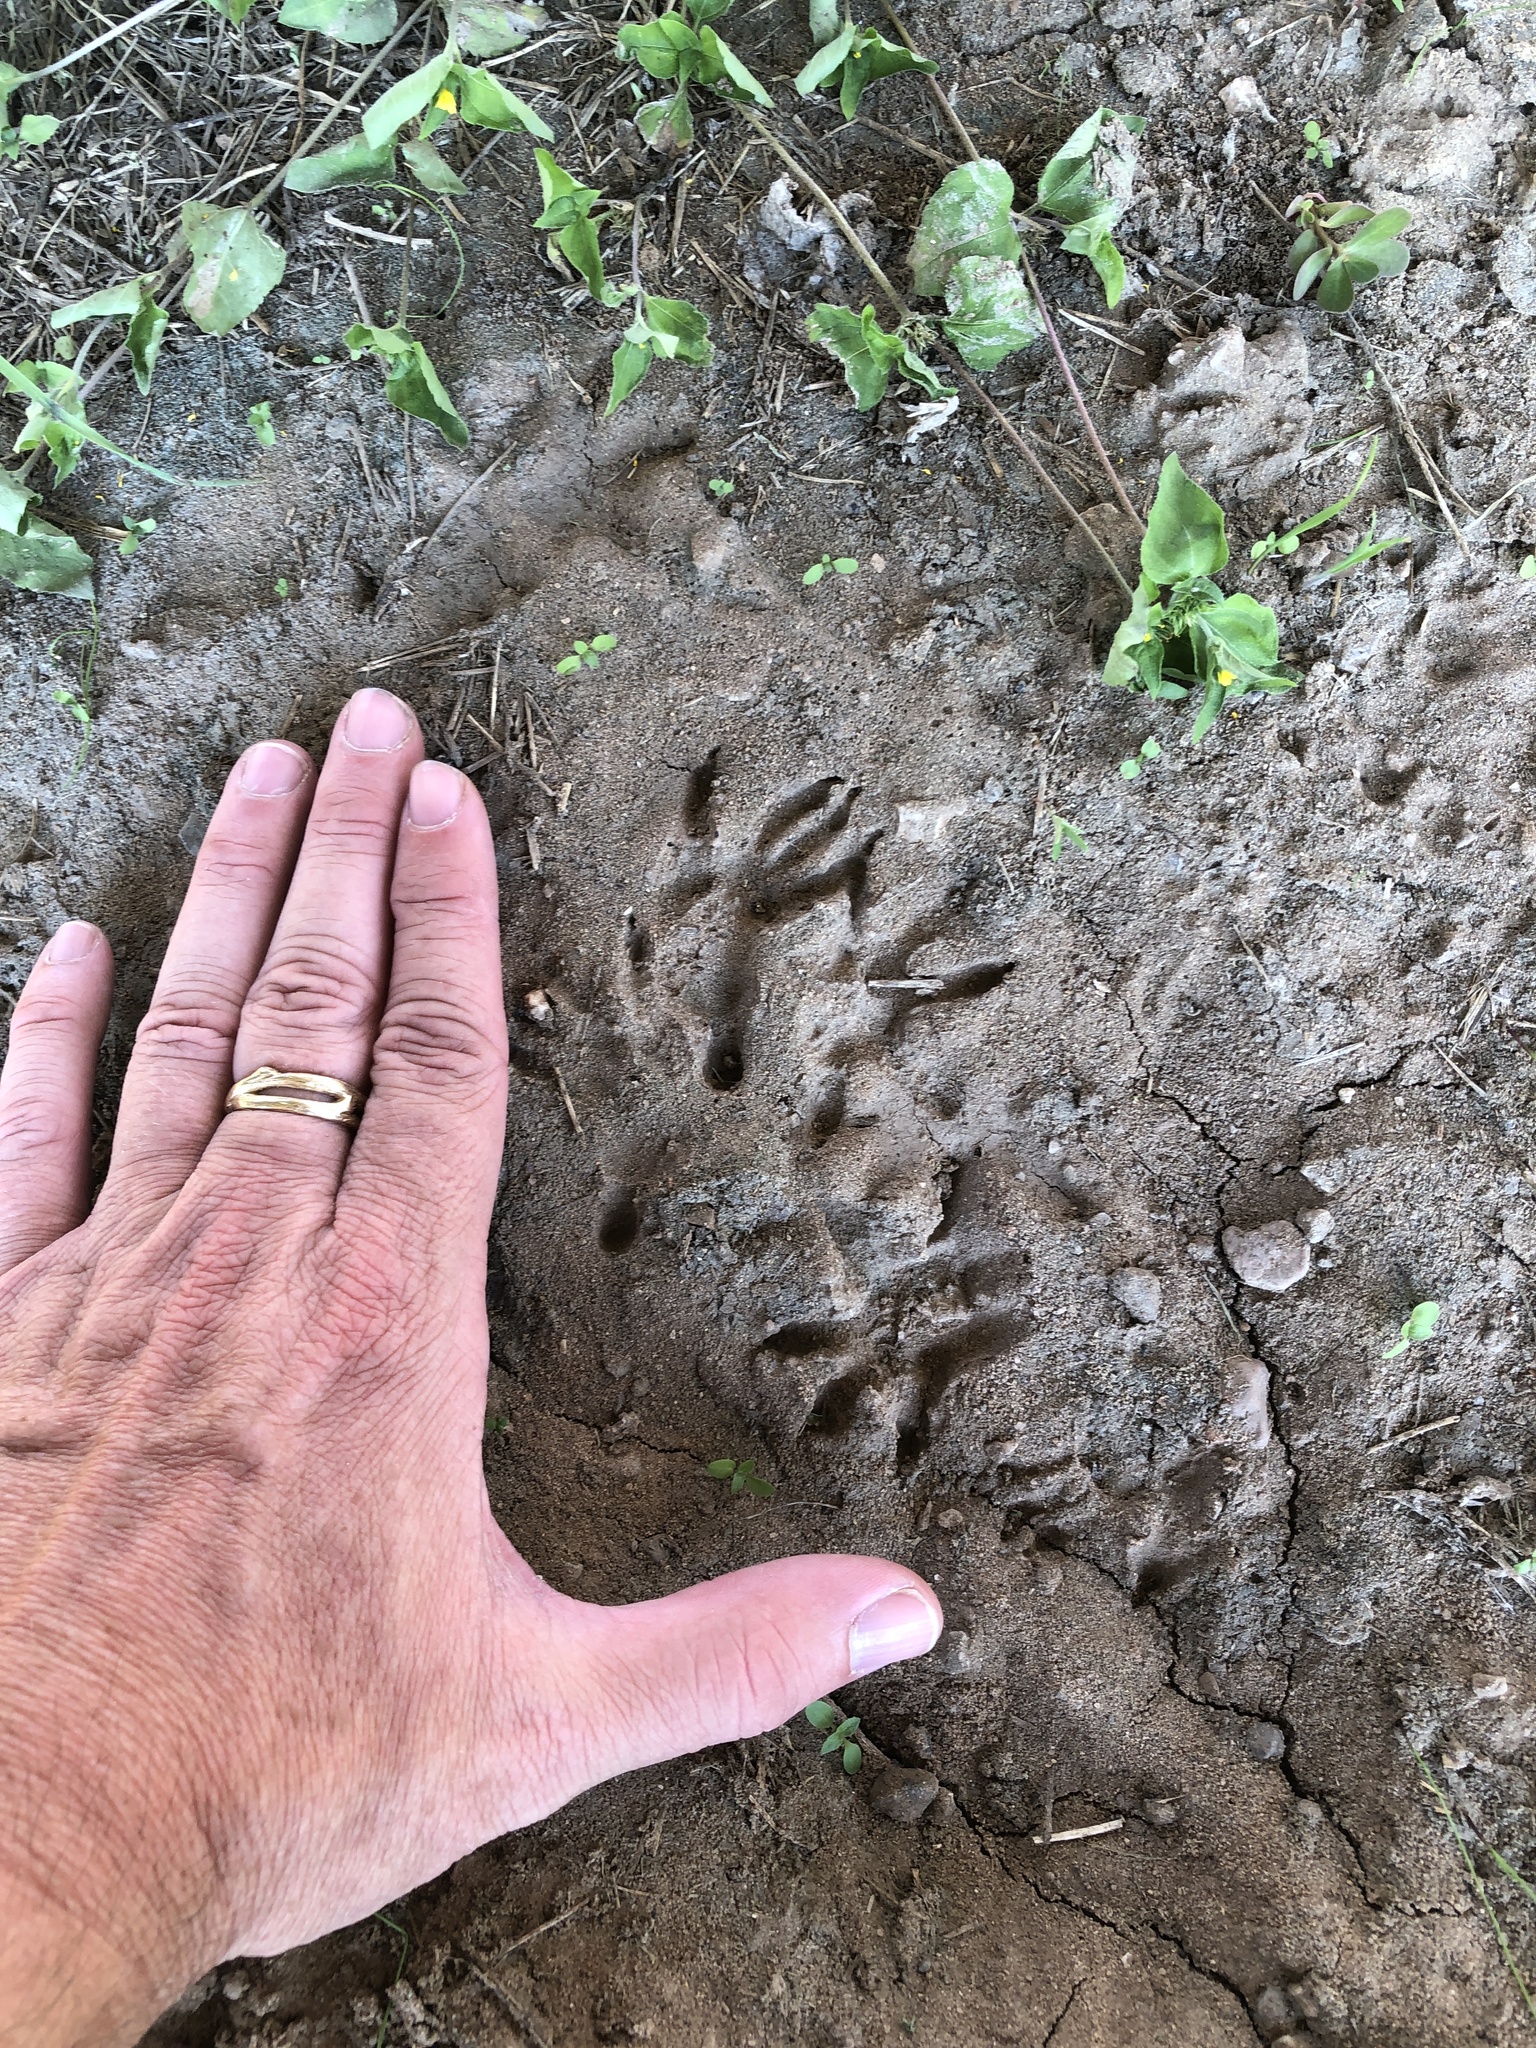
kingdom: Animalia
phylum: Chordata
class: Mammalia
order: Didelphimorphia
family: Didelphidae
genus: Didelphis
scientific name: Didelphis virginiana
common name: Virginia opossum
